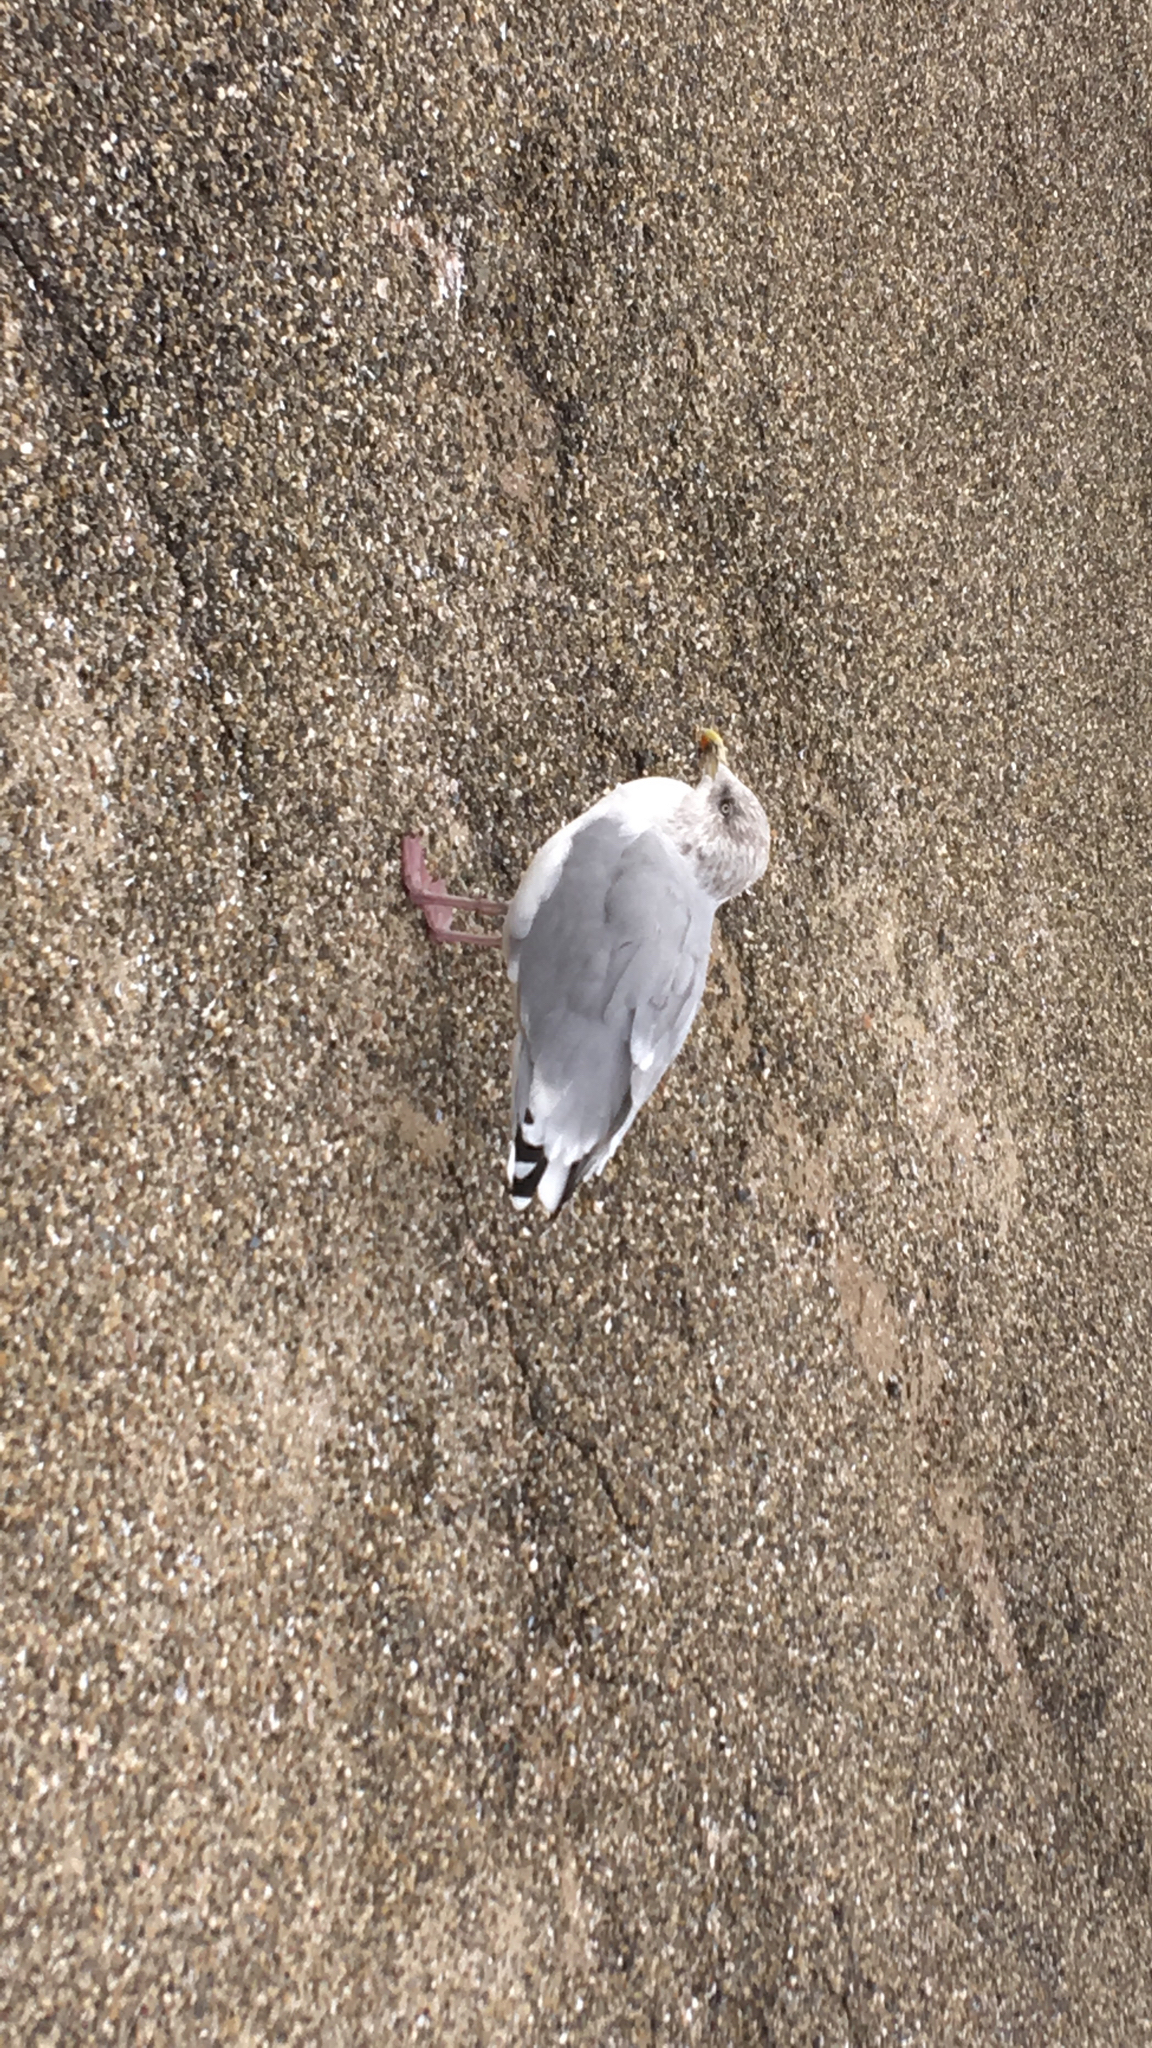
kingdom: Animalia
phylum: Chordata
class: Aves
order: Charadriiformes
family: Laridae
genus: Larus
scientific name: Larus argentatus
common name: Herring gull
